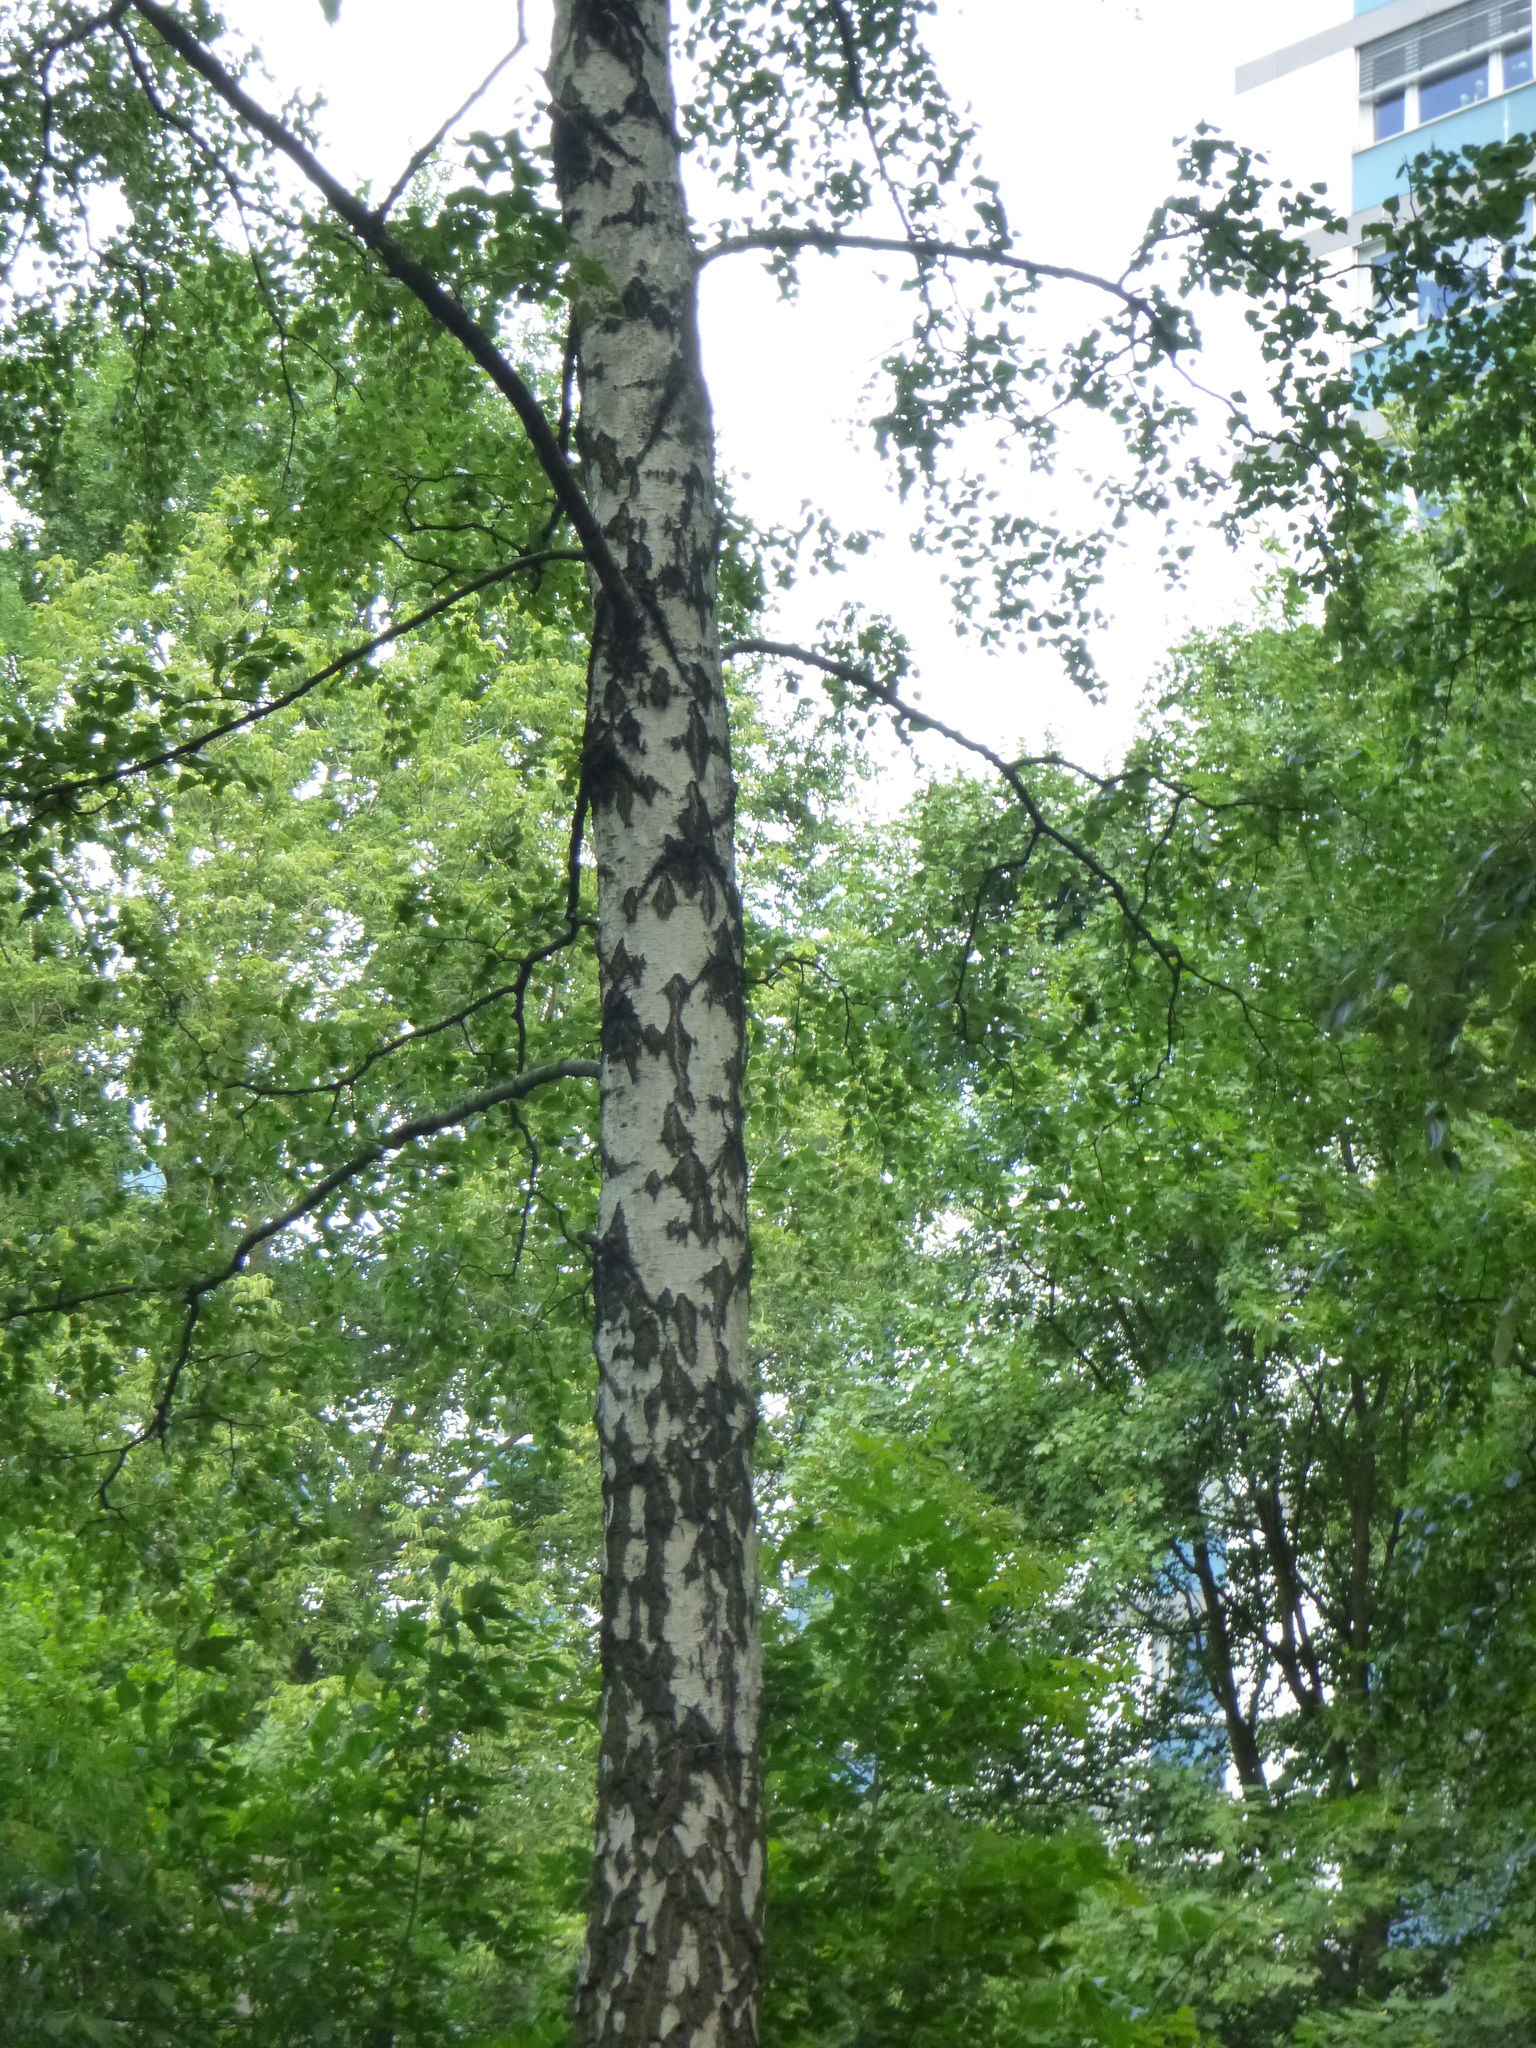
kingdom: Plantae
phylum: Tracheophyta
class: Magnoliopsida
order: Fagales
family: Betulaceae
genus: Betula
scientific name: Betula pendula
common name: Silver birch
